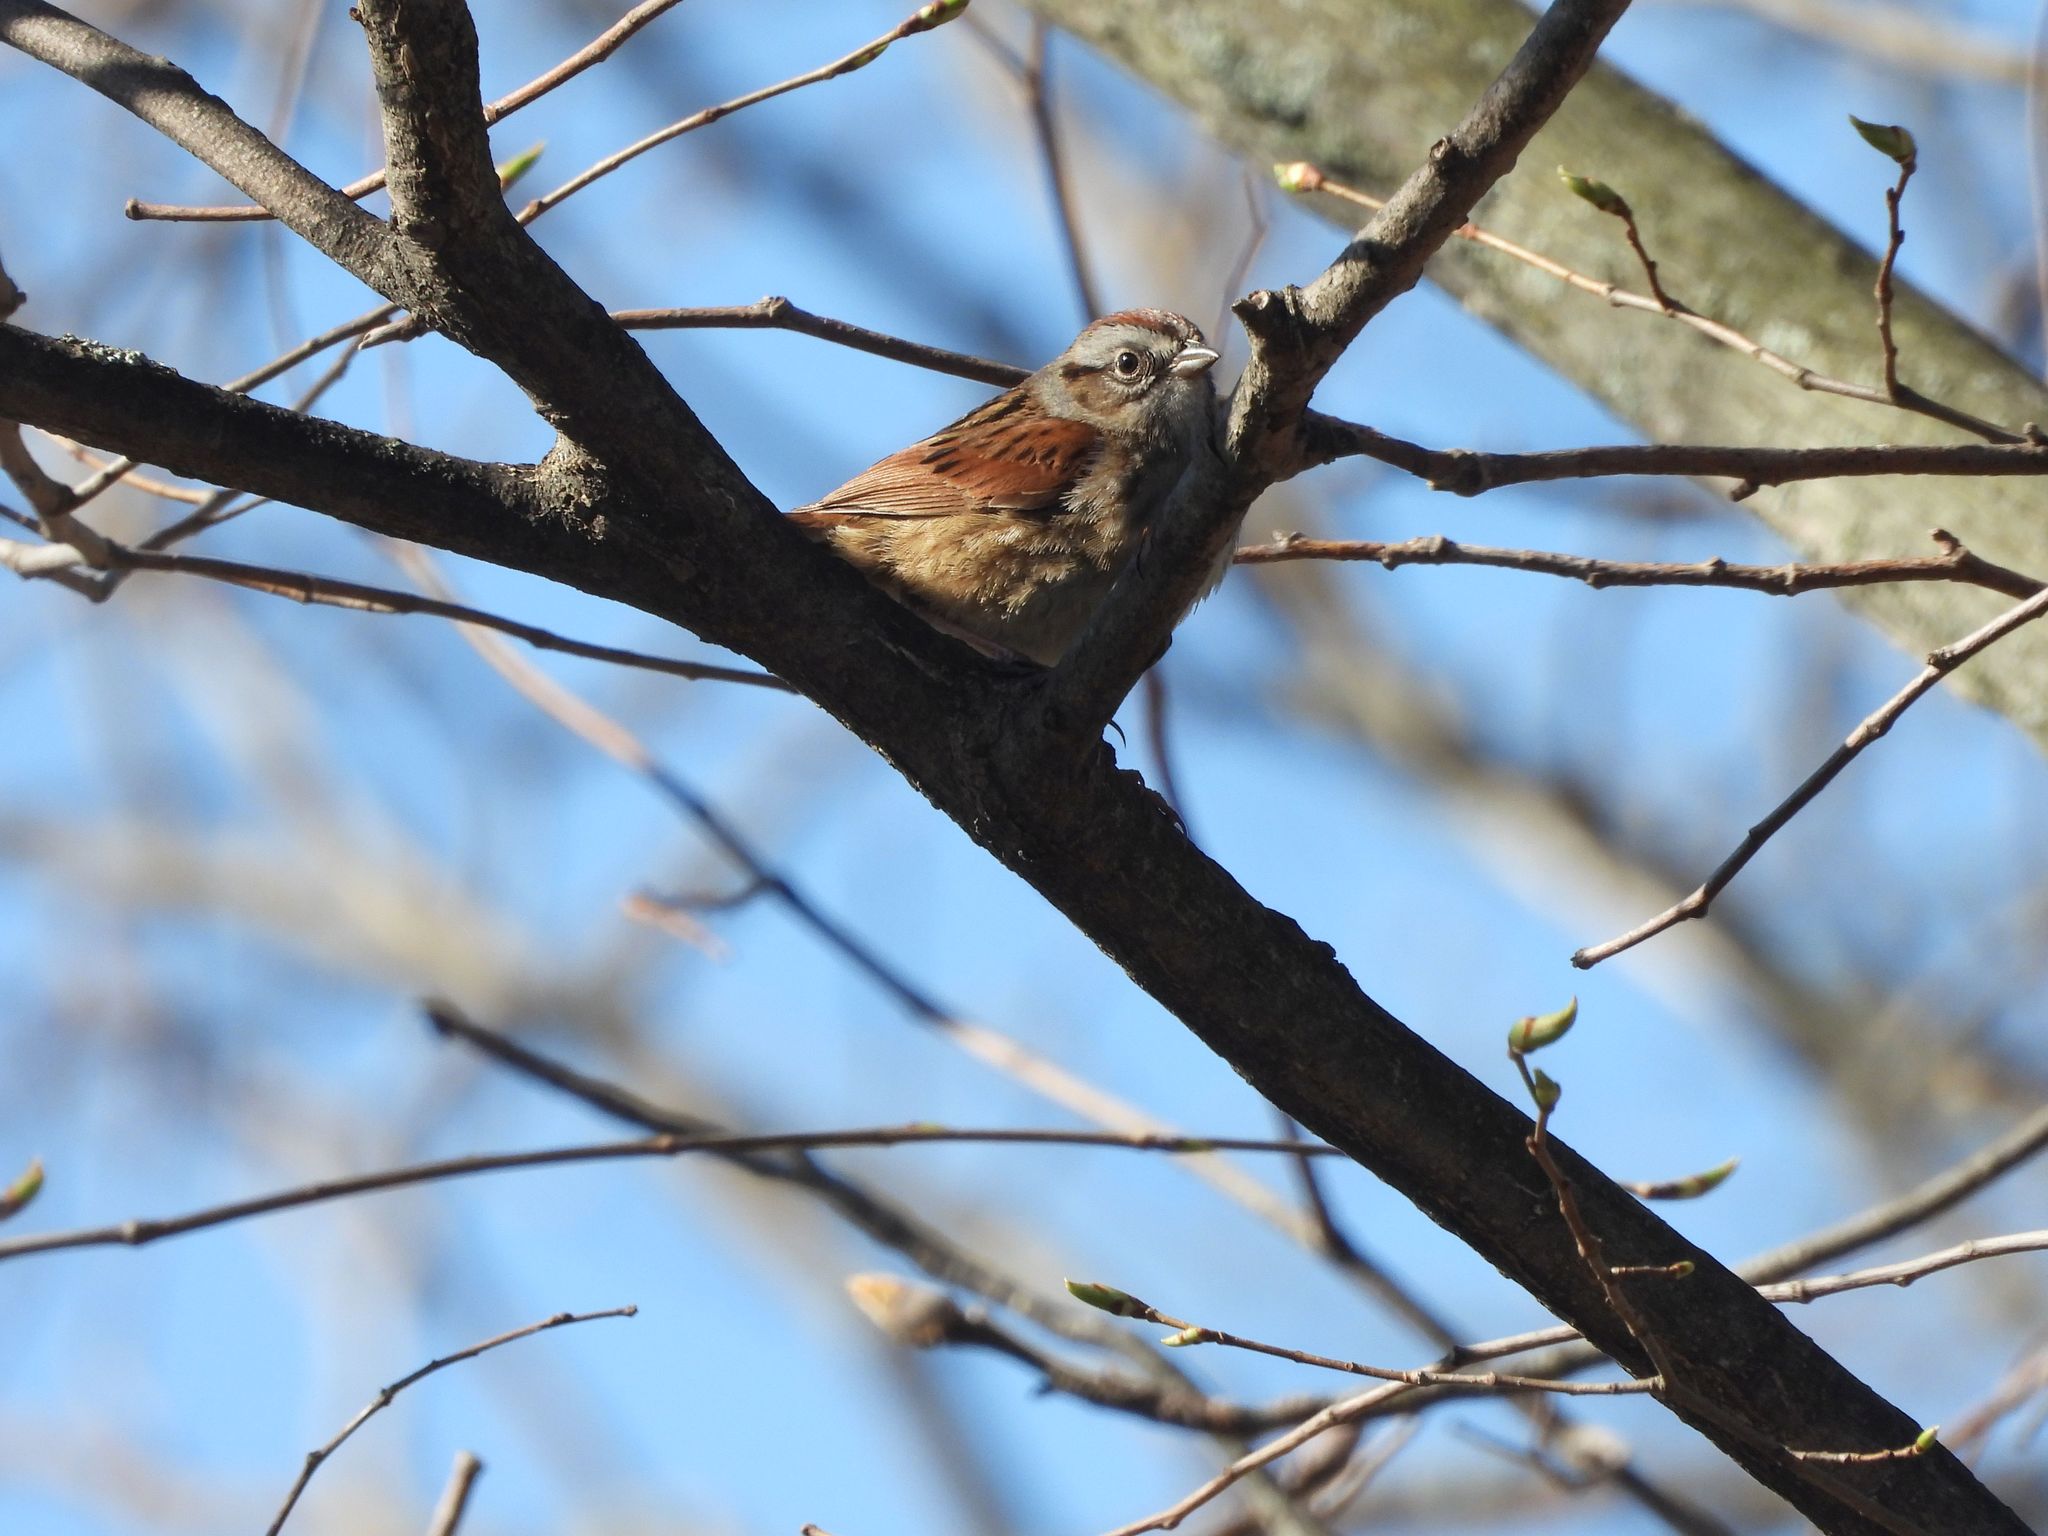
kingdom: Animalia
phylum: Chordata
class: Aves
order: Passeriformes
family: Passerellidae
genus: Melospiza
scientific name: Melospiza georgiana
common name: Swamp sparrow
